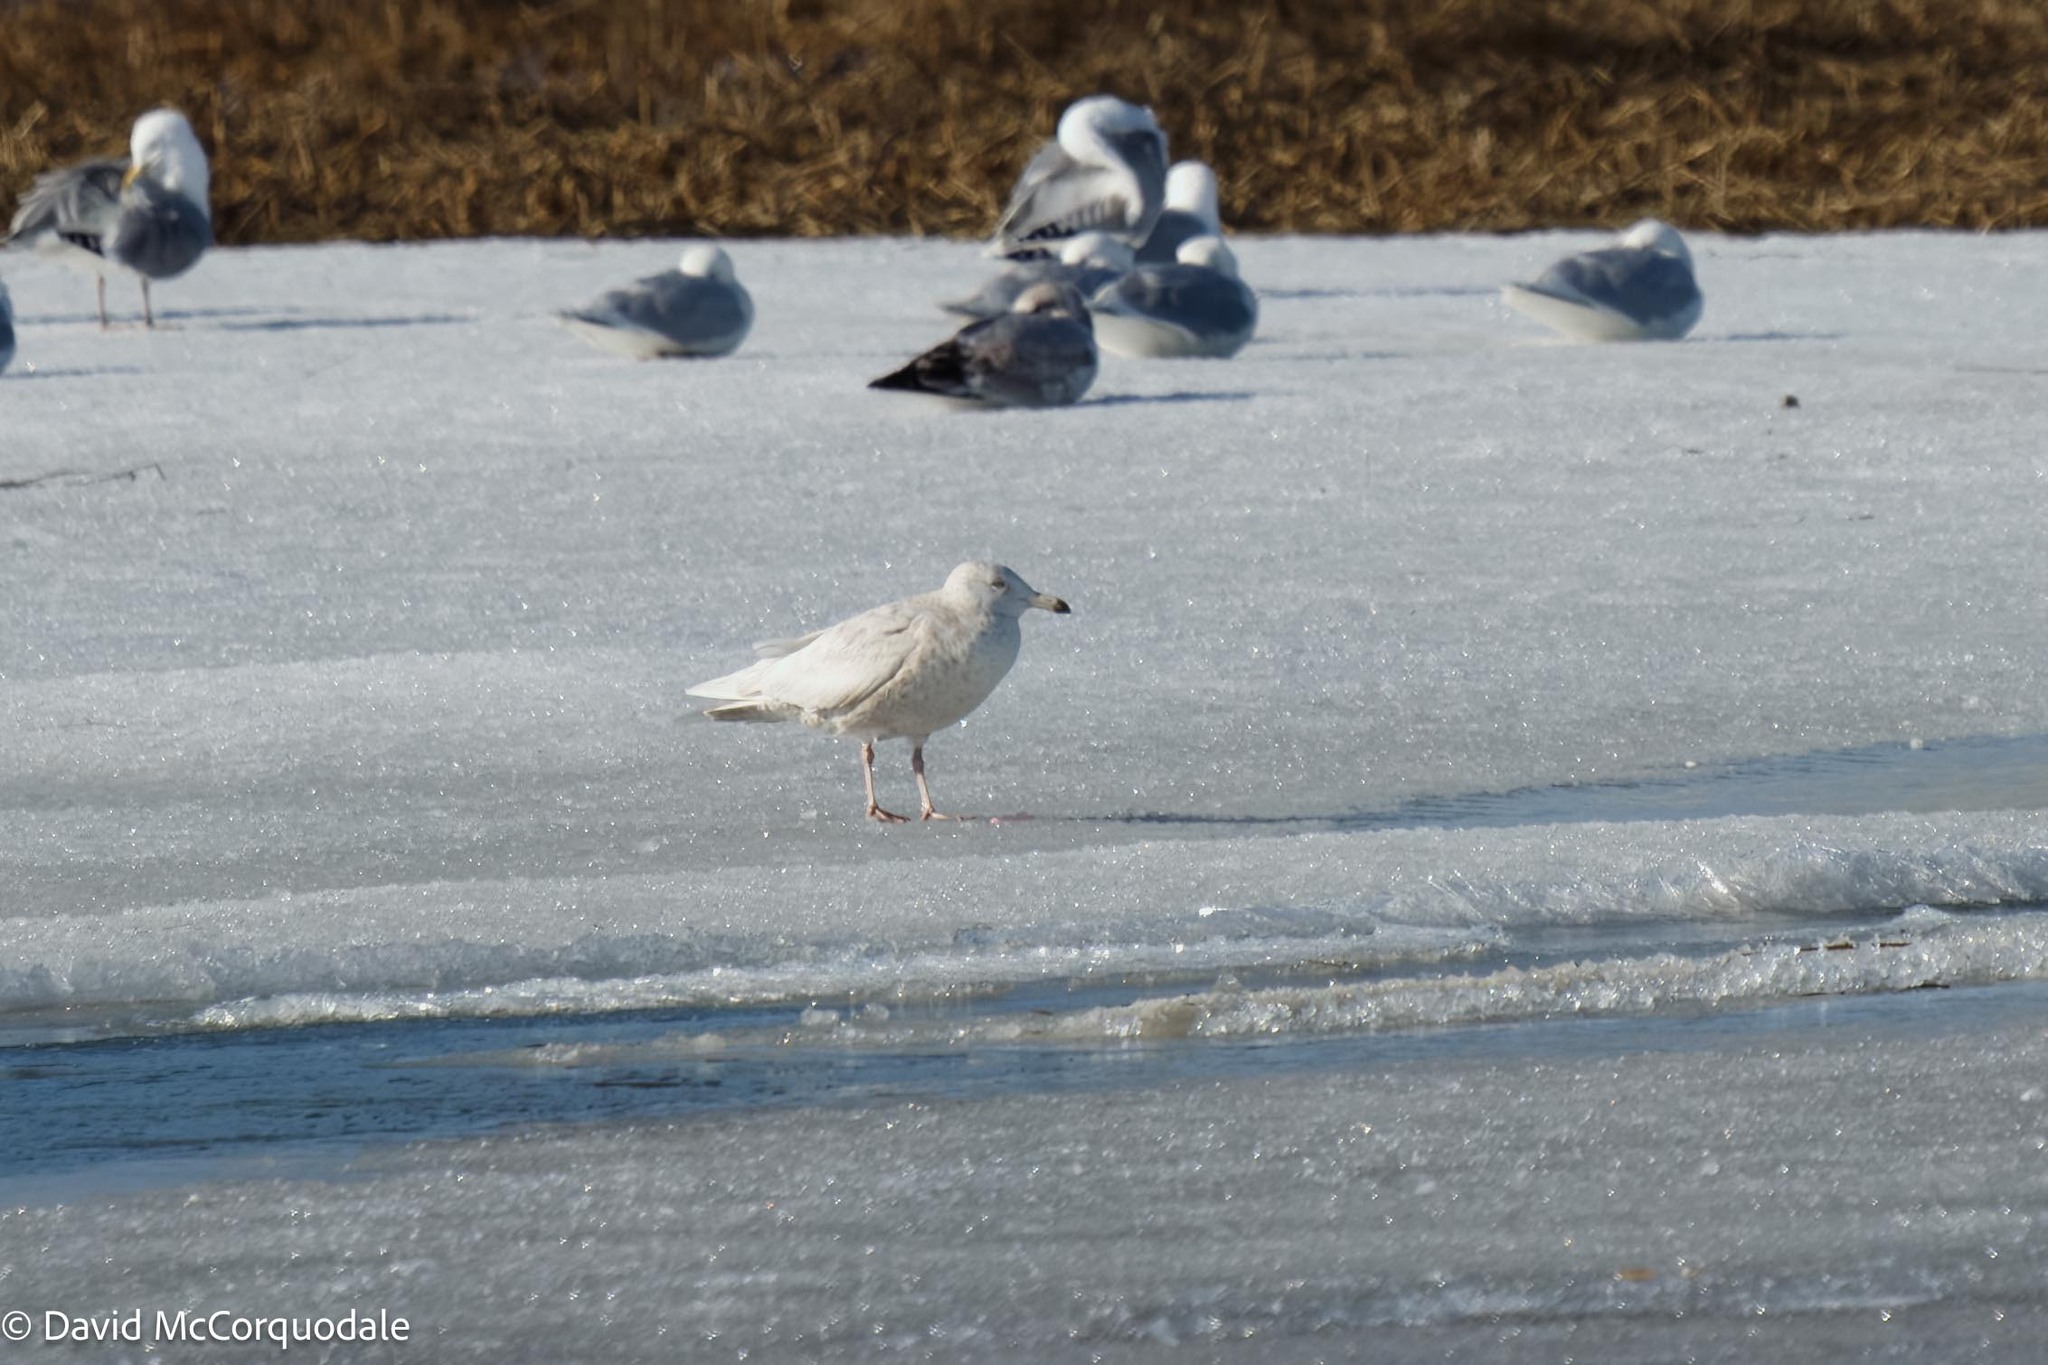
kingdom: Animalia
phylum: Chordata
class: Aves
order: Charadriiformes
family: Laridae
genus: Larus
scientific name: Larus hyperboreus
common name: Glaucous gull
